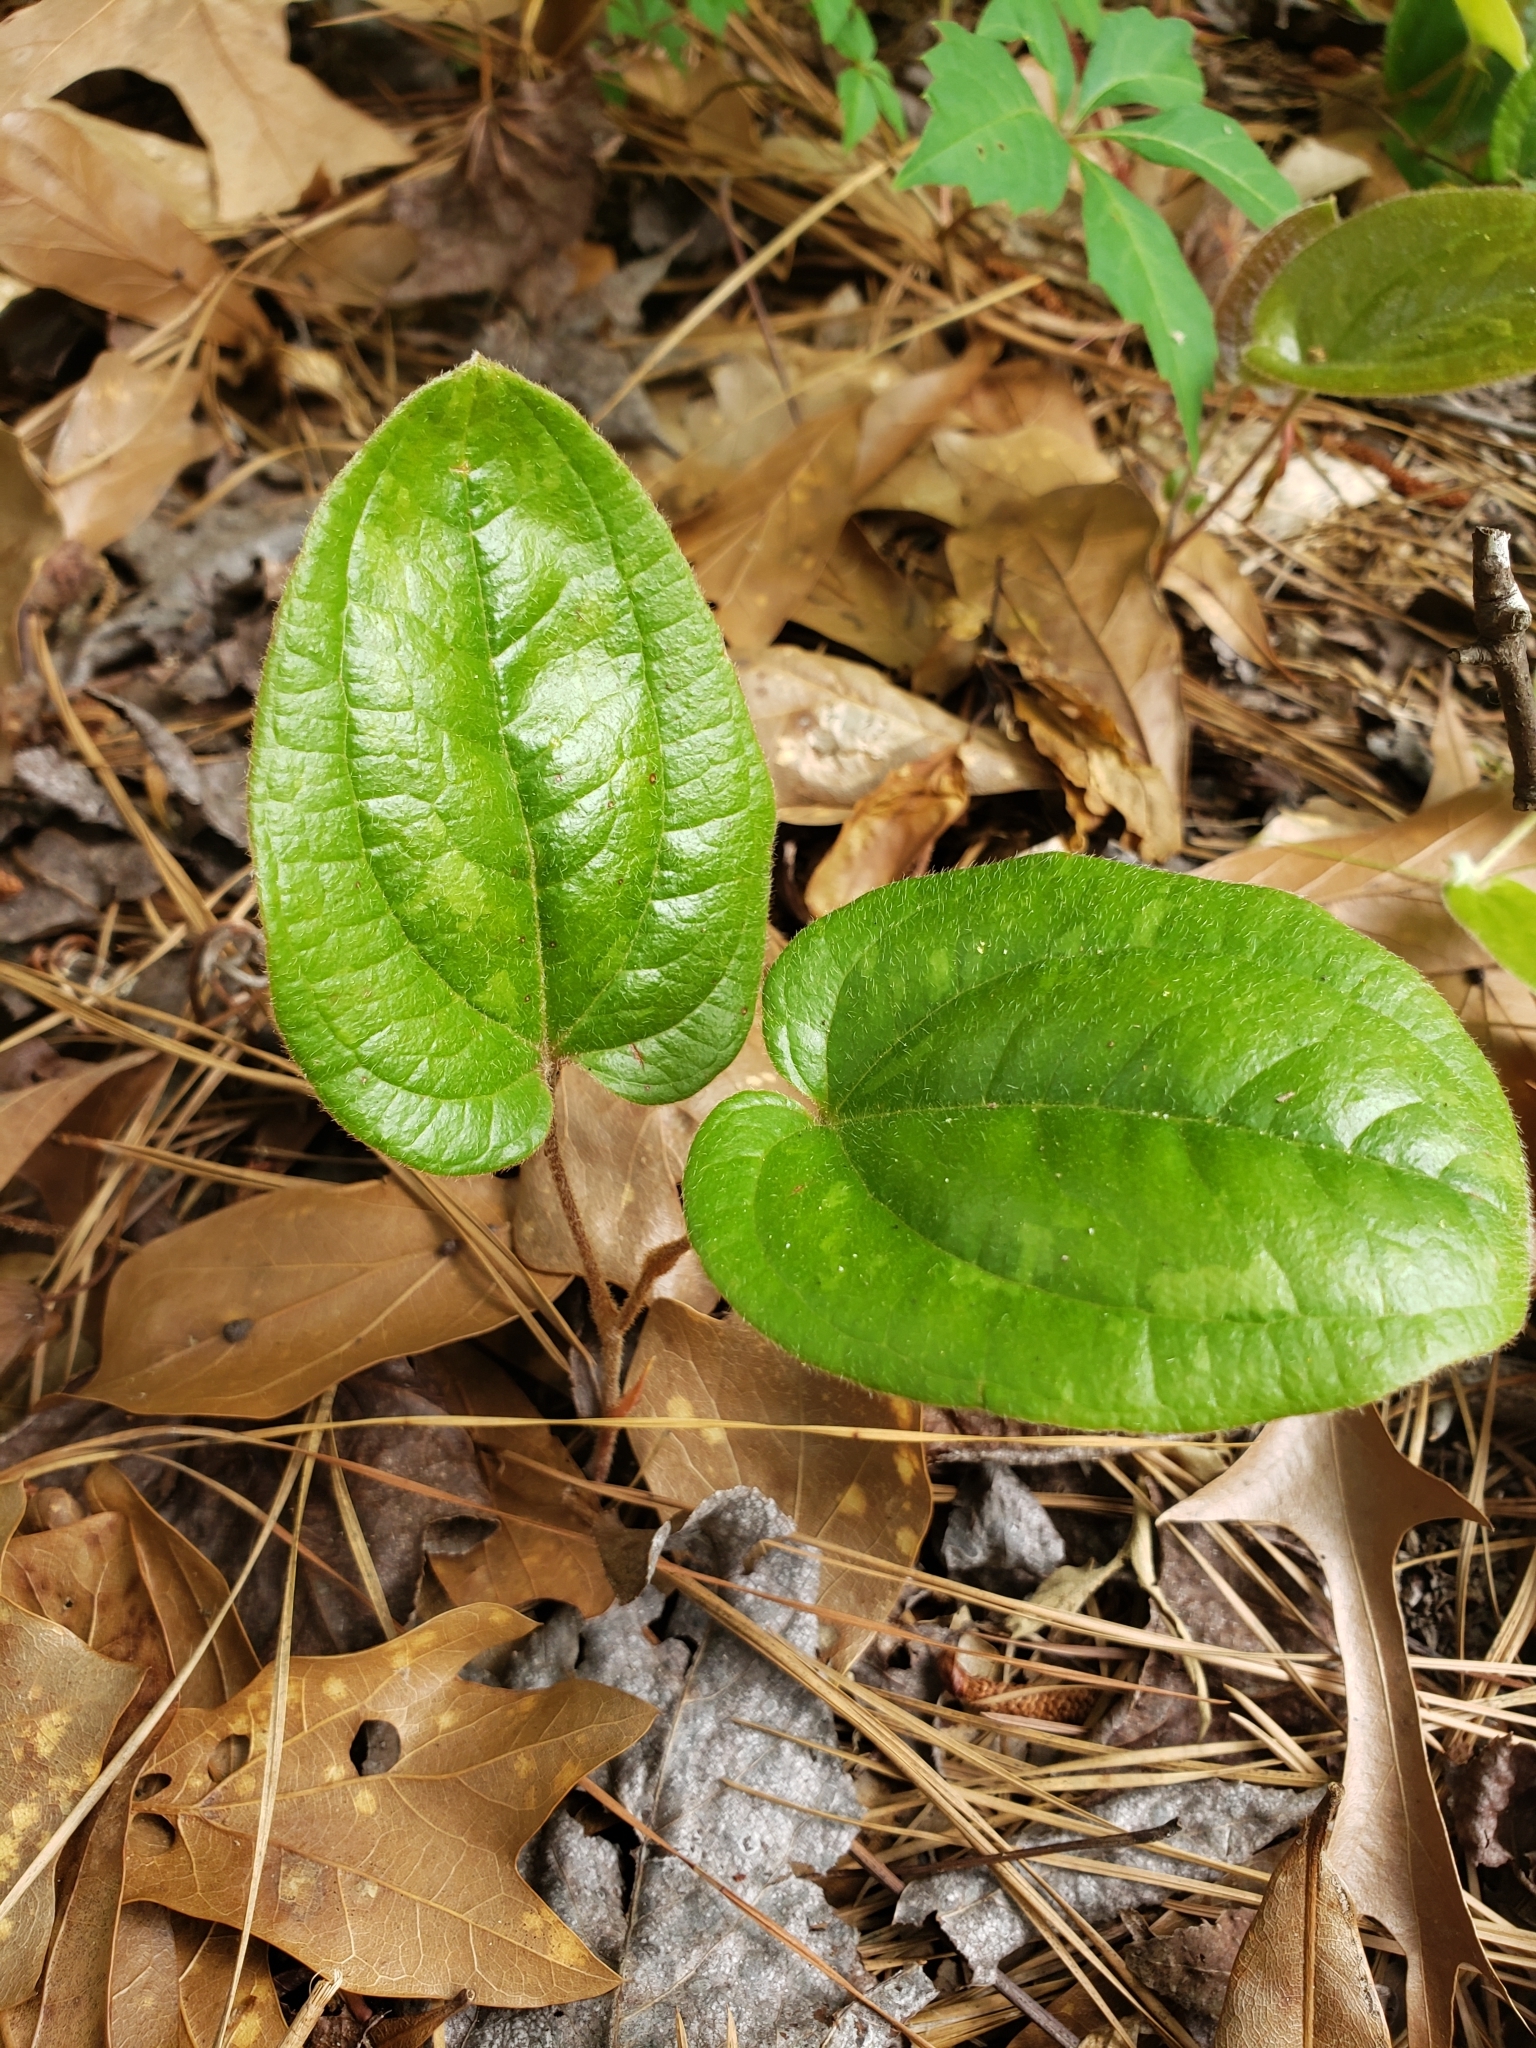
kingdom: Plantae
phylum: Tracheophyta
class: Liliopsida
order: Liliales
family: Smilacaceae
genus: Smilax
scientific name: Smilax pumila
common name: Sarsaparilla-vine
